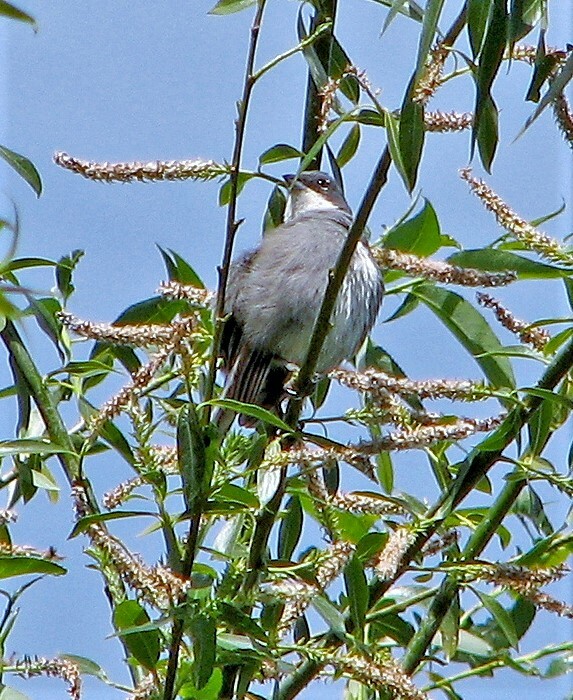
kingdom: Animalia
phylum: Chordata
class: Aves
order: Passeriformes
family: Thraupidae
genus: Diuca
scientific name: Diuca diuca
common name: Common diuca finch
